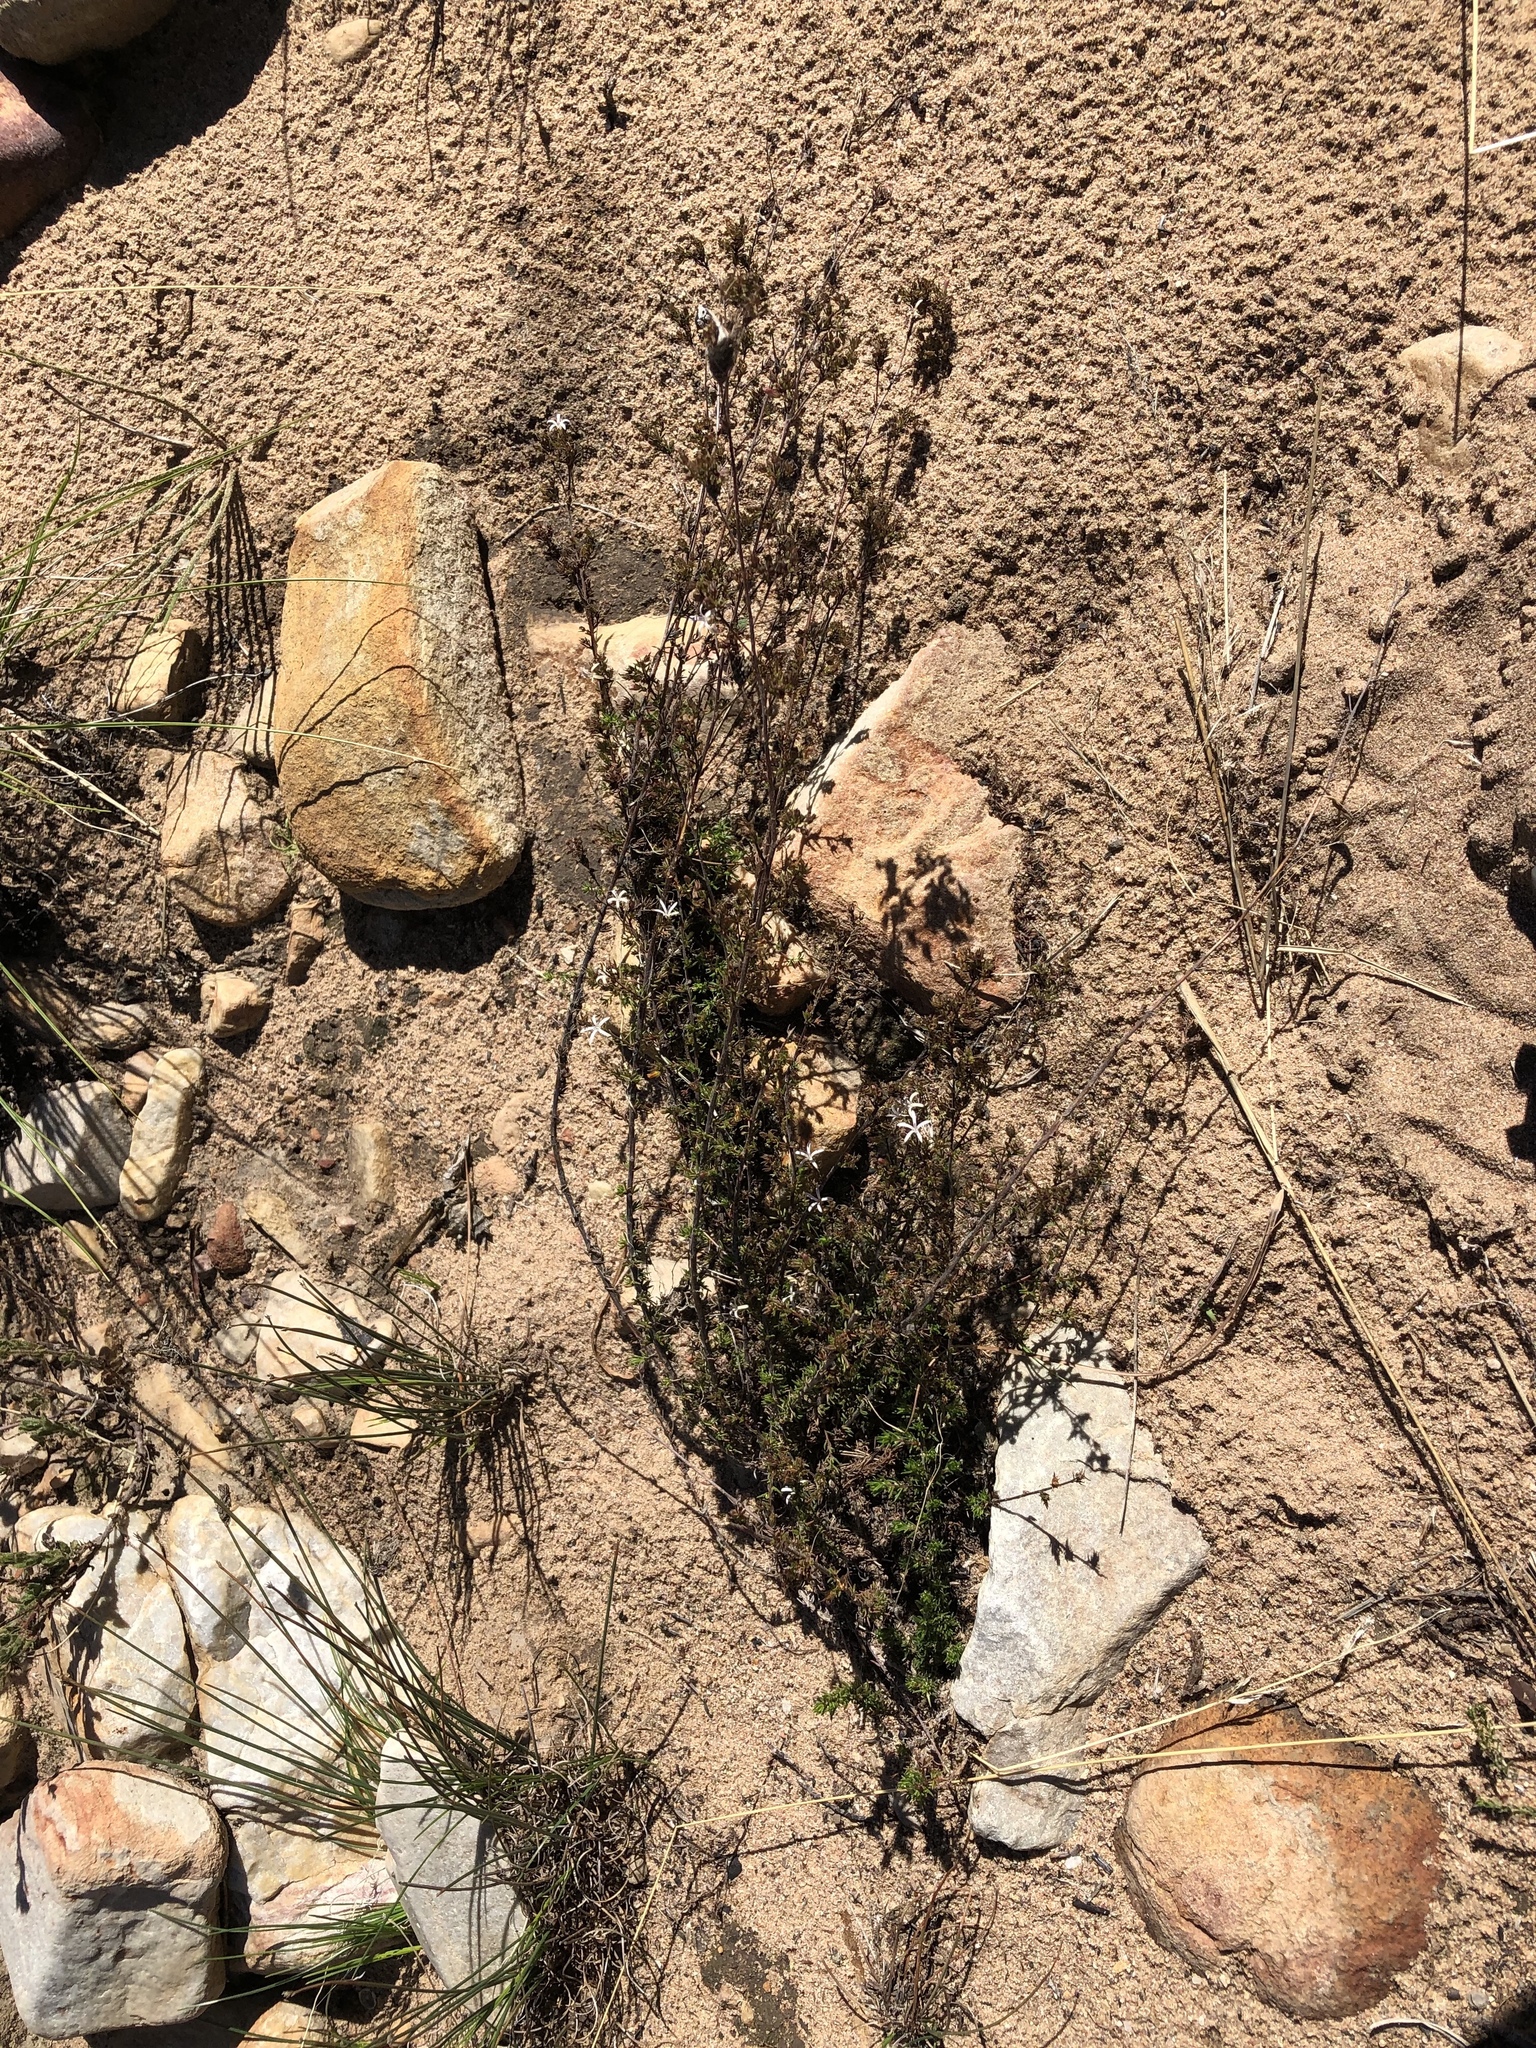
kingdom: Plantae
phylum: Tracheophyta
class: Magnoliopsida
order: Asterales
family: Campanulaceae
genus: Wahlenbergia
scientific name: Wahlenbergia rubens
